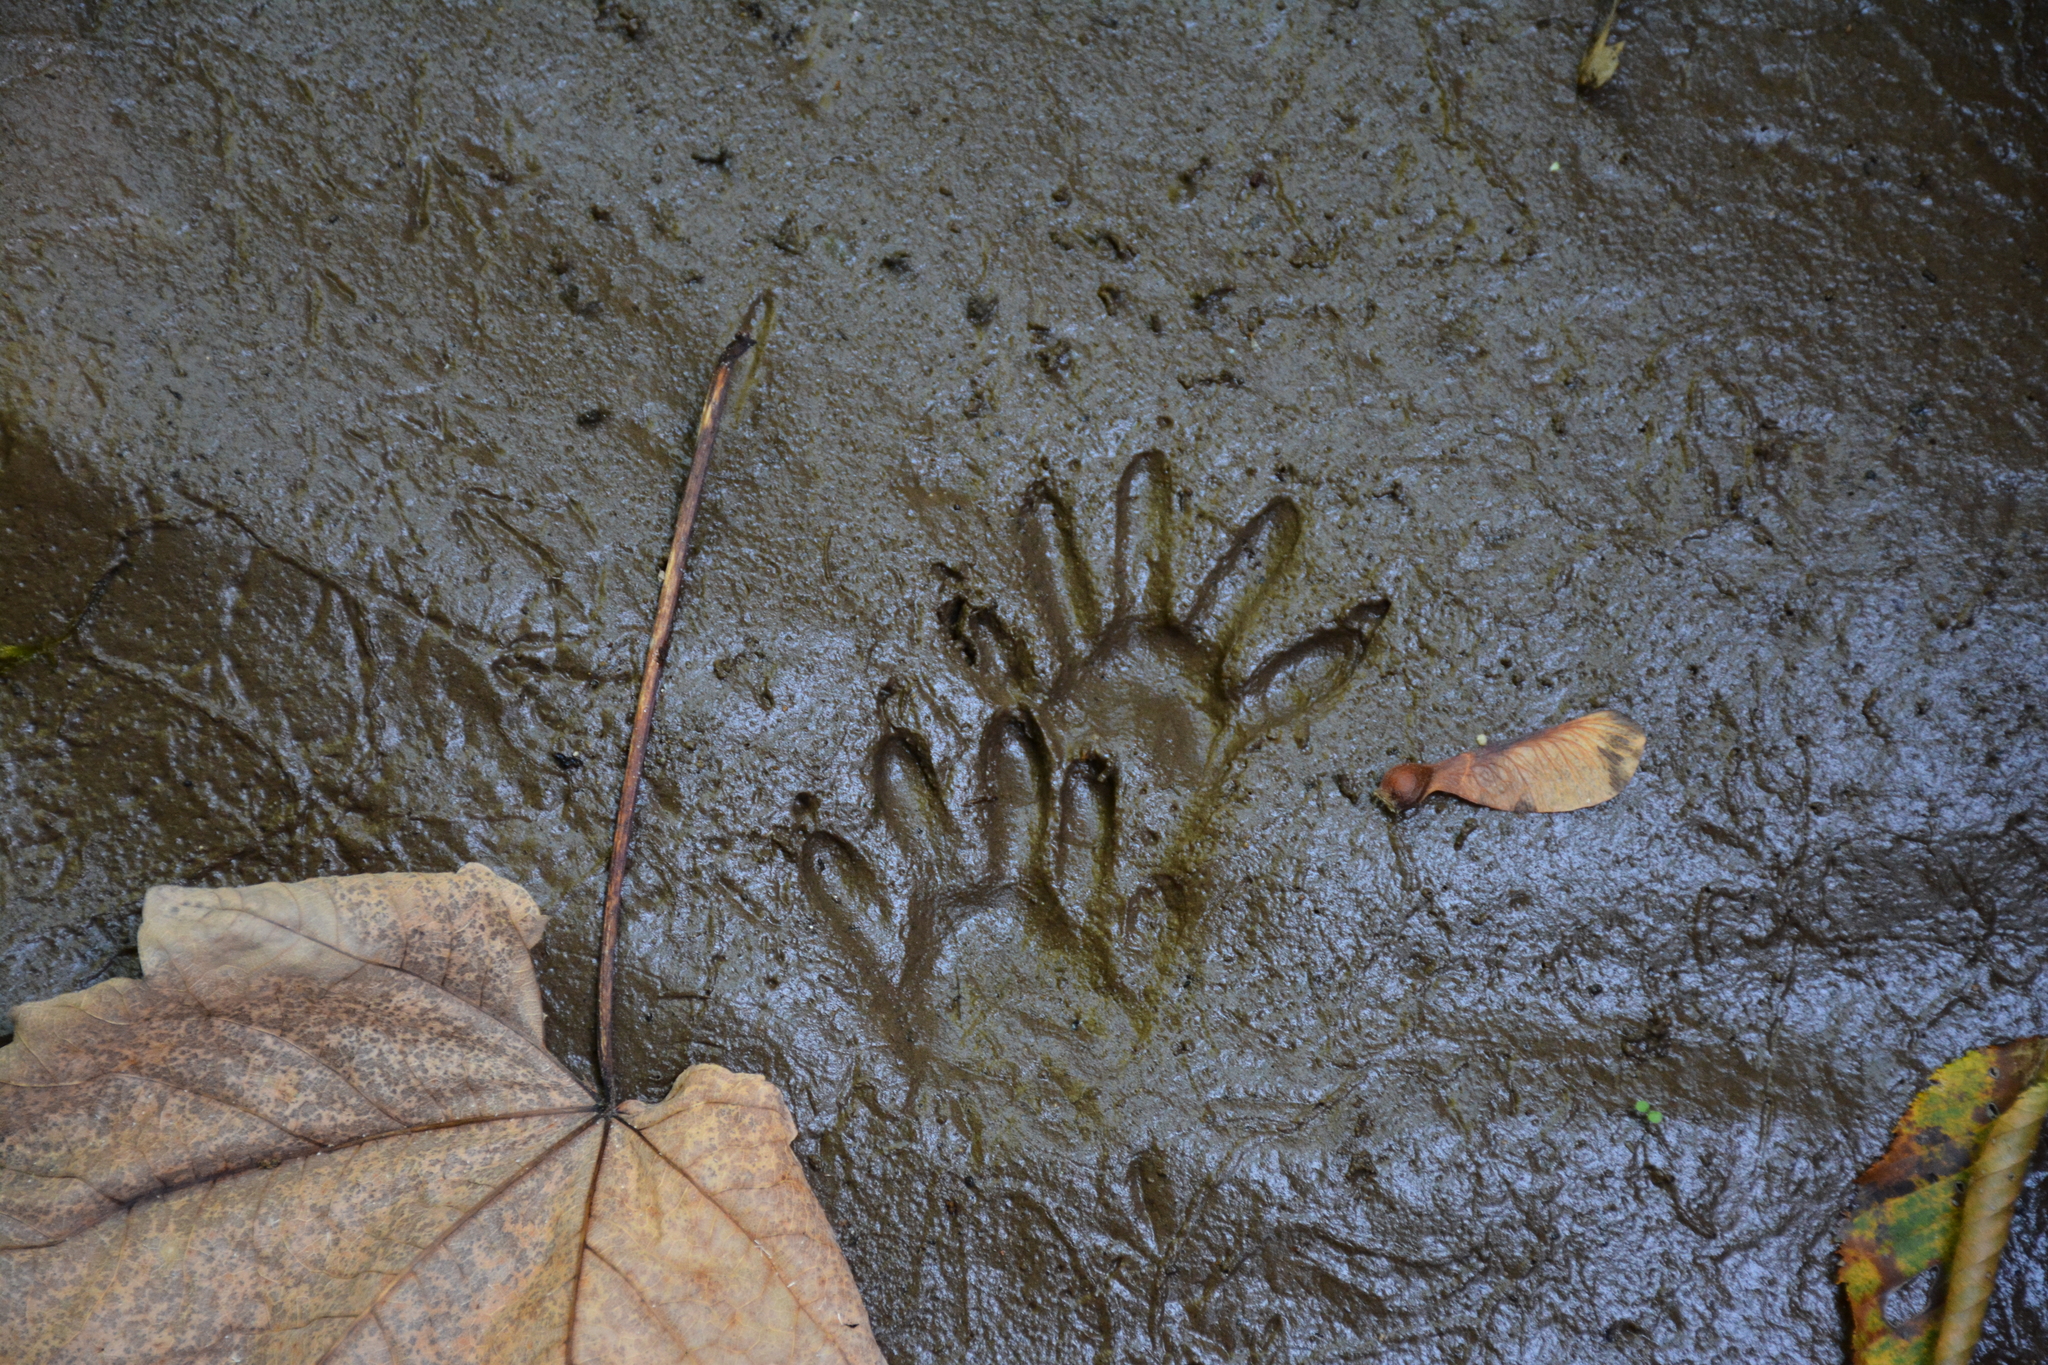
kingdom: Animalia
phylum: Chordata
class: Mammalia
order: Carnivora
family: Procyonidae
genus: Procyon
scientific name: Procyon lotor
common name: Raccoon
